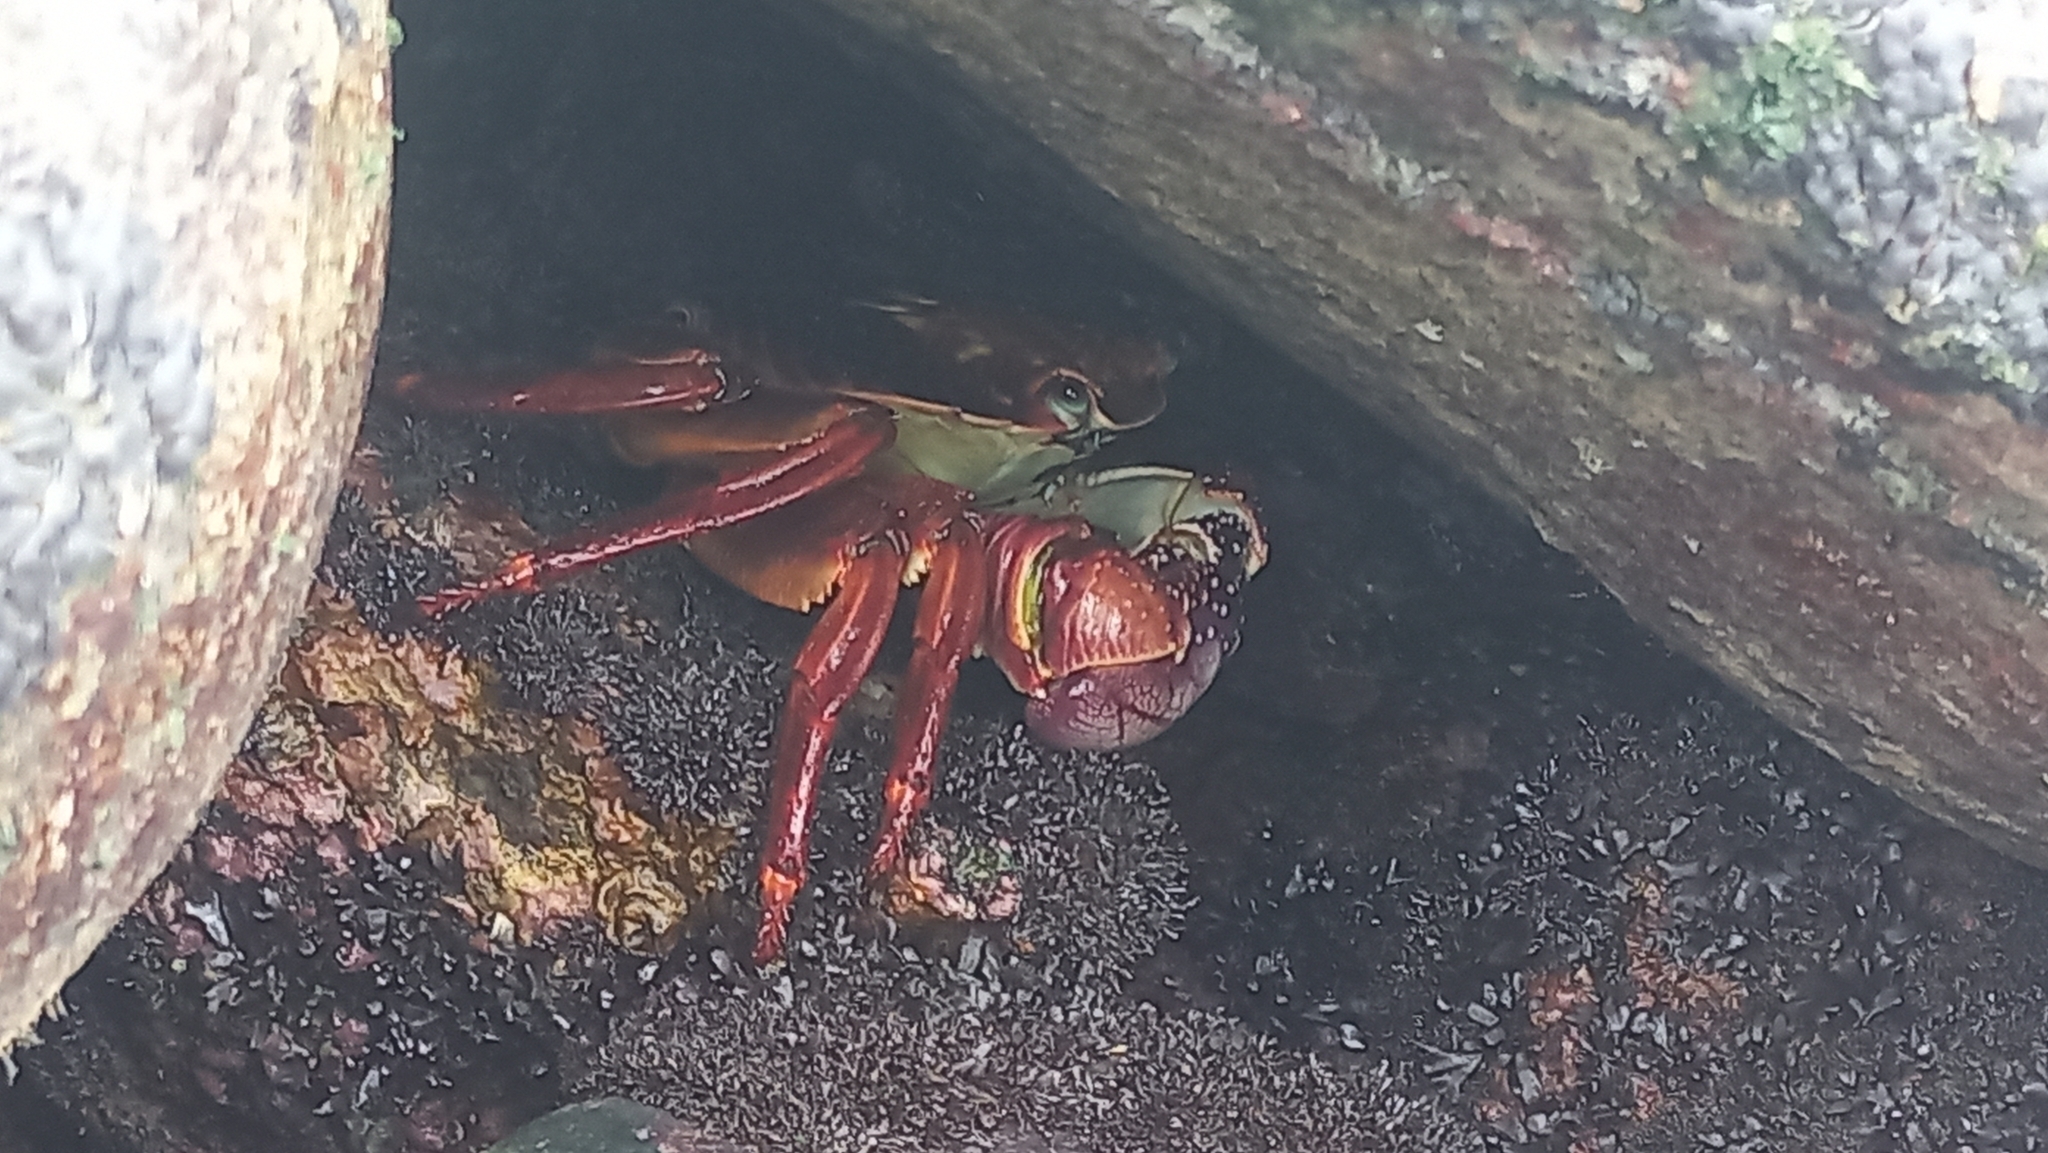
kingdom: Animalia
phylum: Arthropoda
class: Malacostraca
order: Decapoda
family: Grapsidae
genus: Leptograpsus
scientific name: Leptograpsus variegatus
